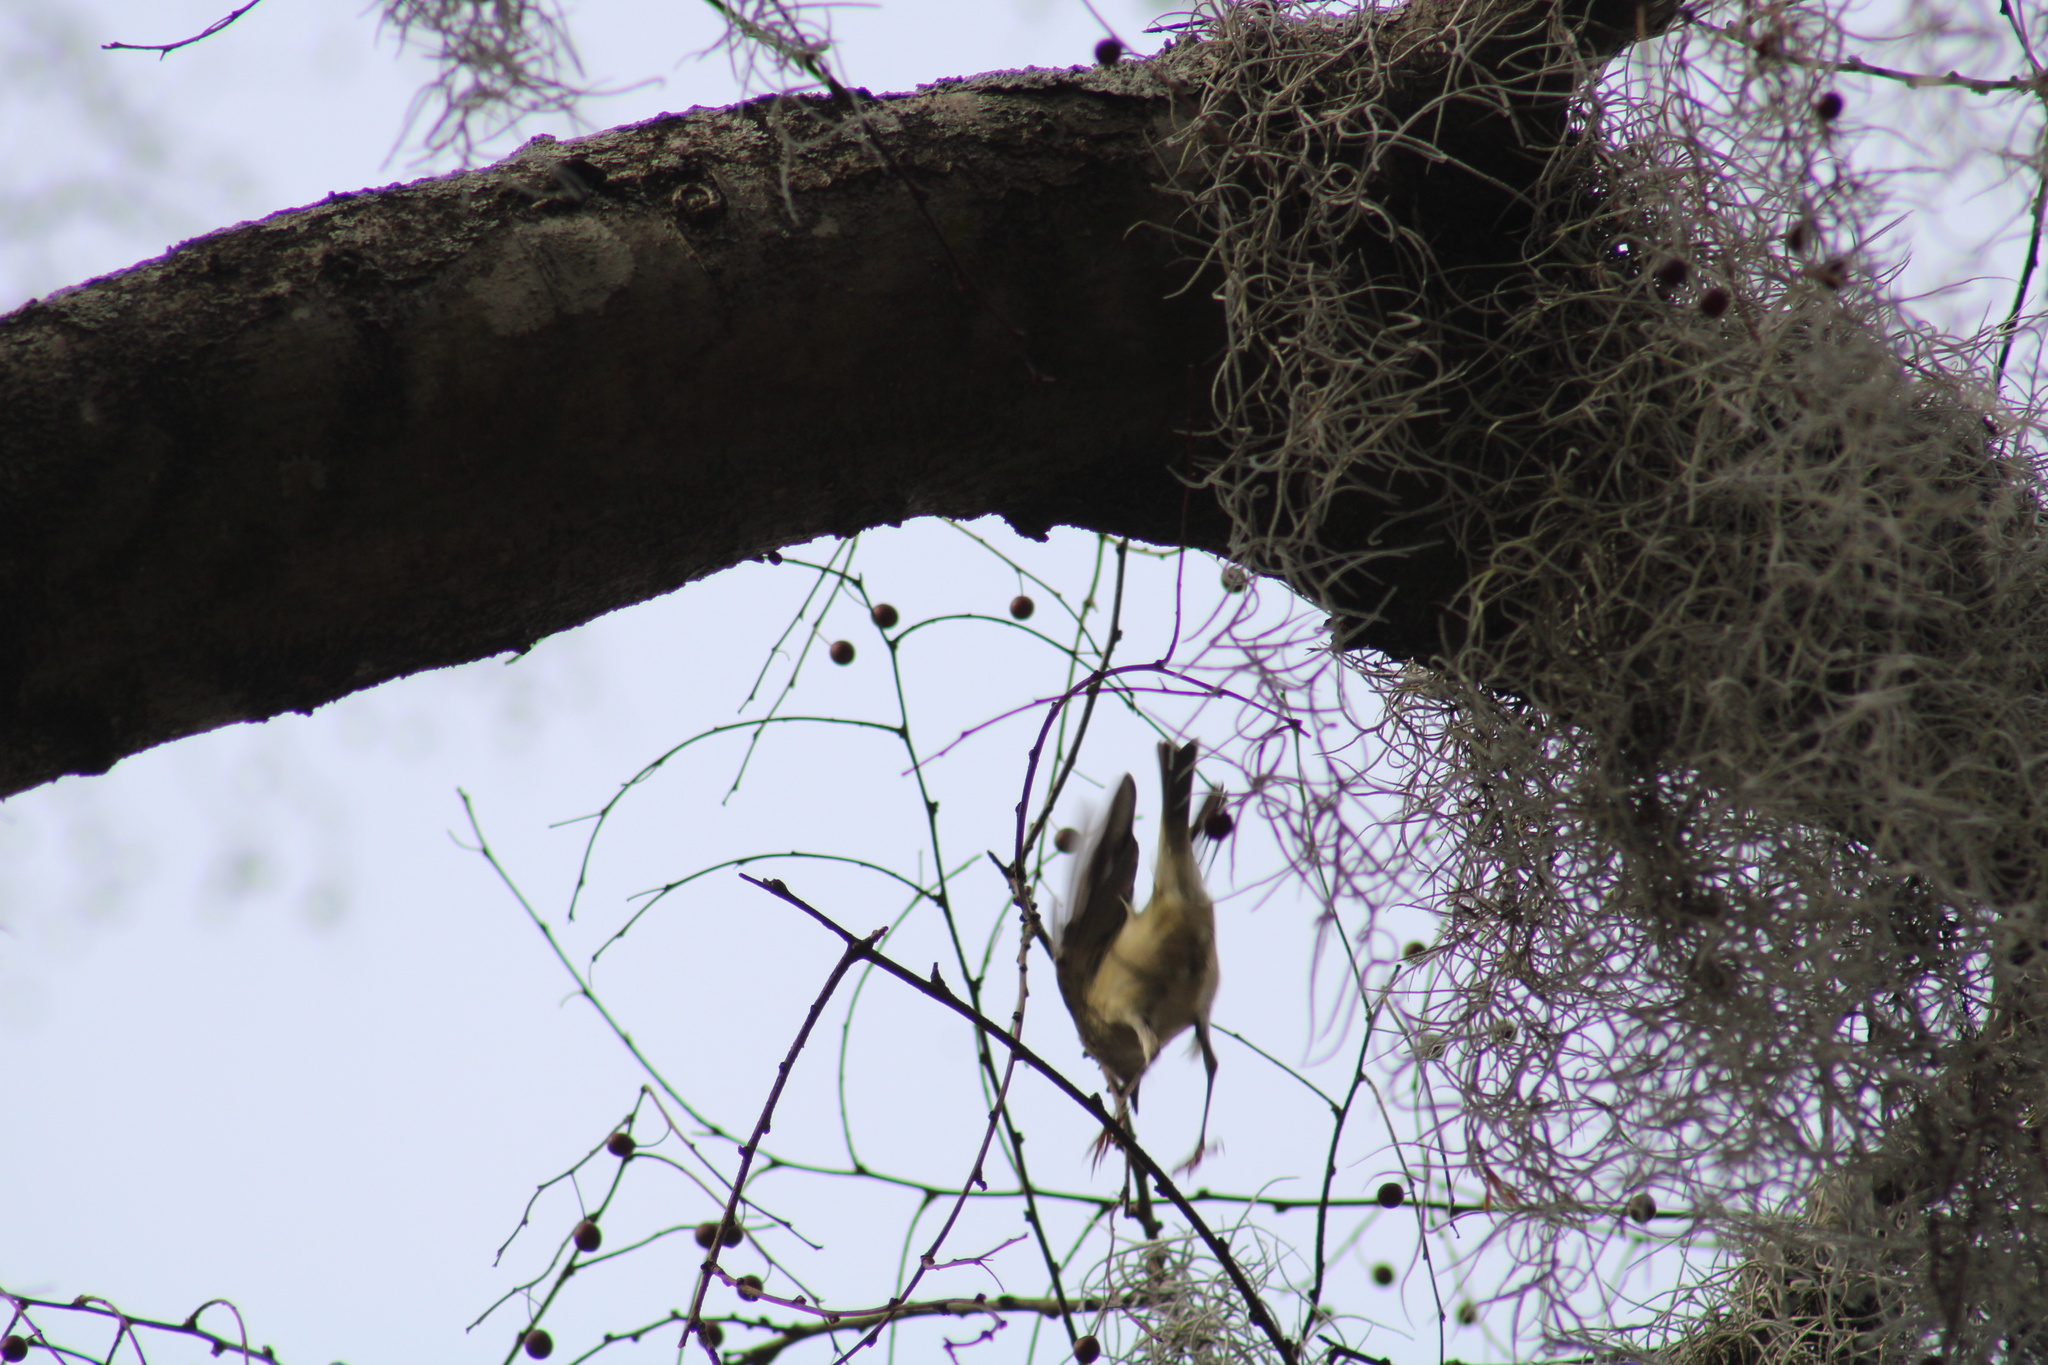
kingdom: Animalia
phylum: Chordata
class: Aves
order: Passeriformes
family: Regulidae
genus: Regulus
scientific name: Regulus calendula
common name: Ruby-crowned kinglet
